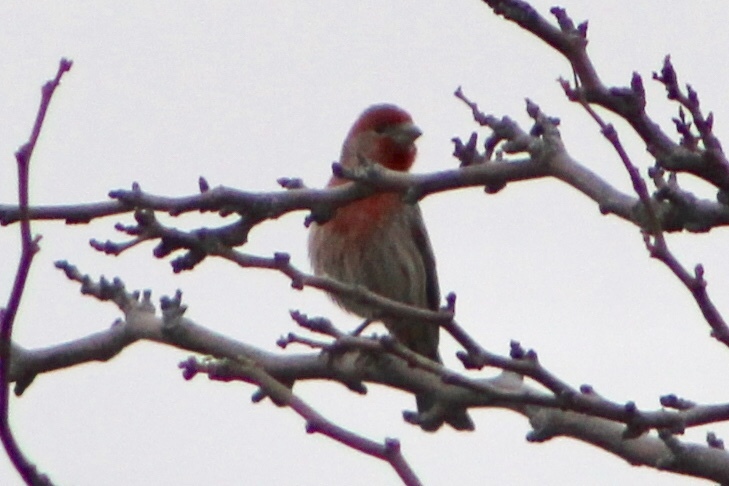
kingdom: Animalia
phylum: Chordata
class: Aves
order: Passeriformes
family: Fringillidae
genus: Haemorhous
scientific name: Haemorhous mexicanus
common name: House finch
